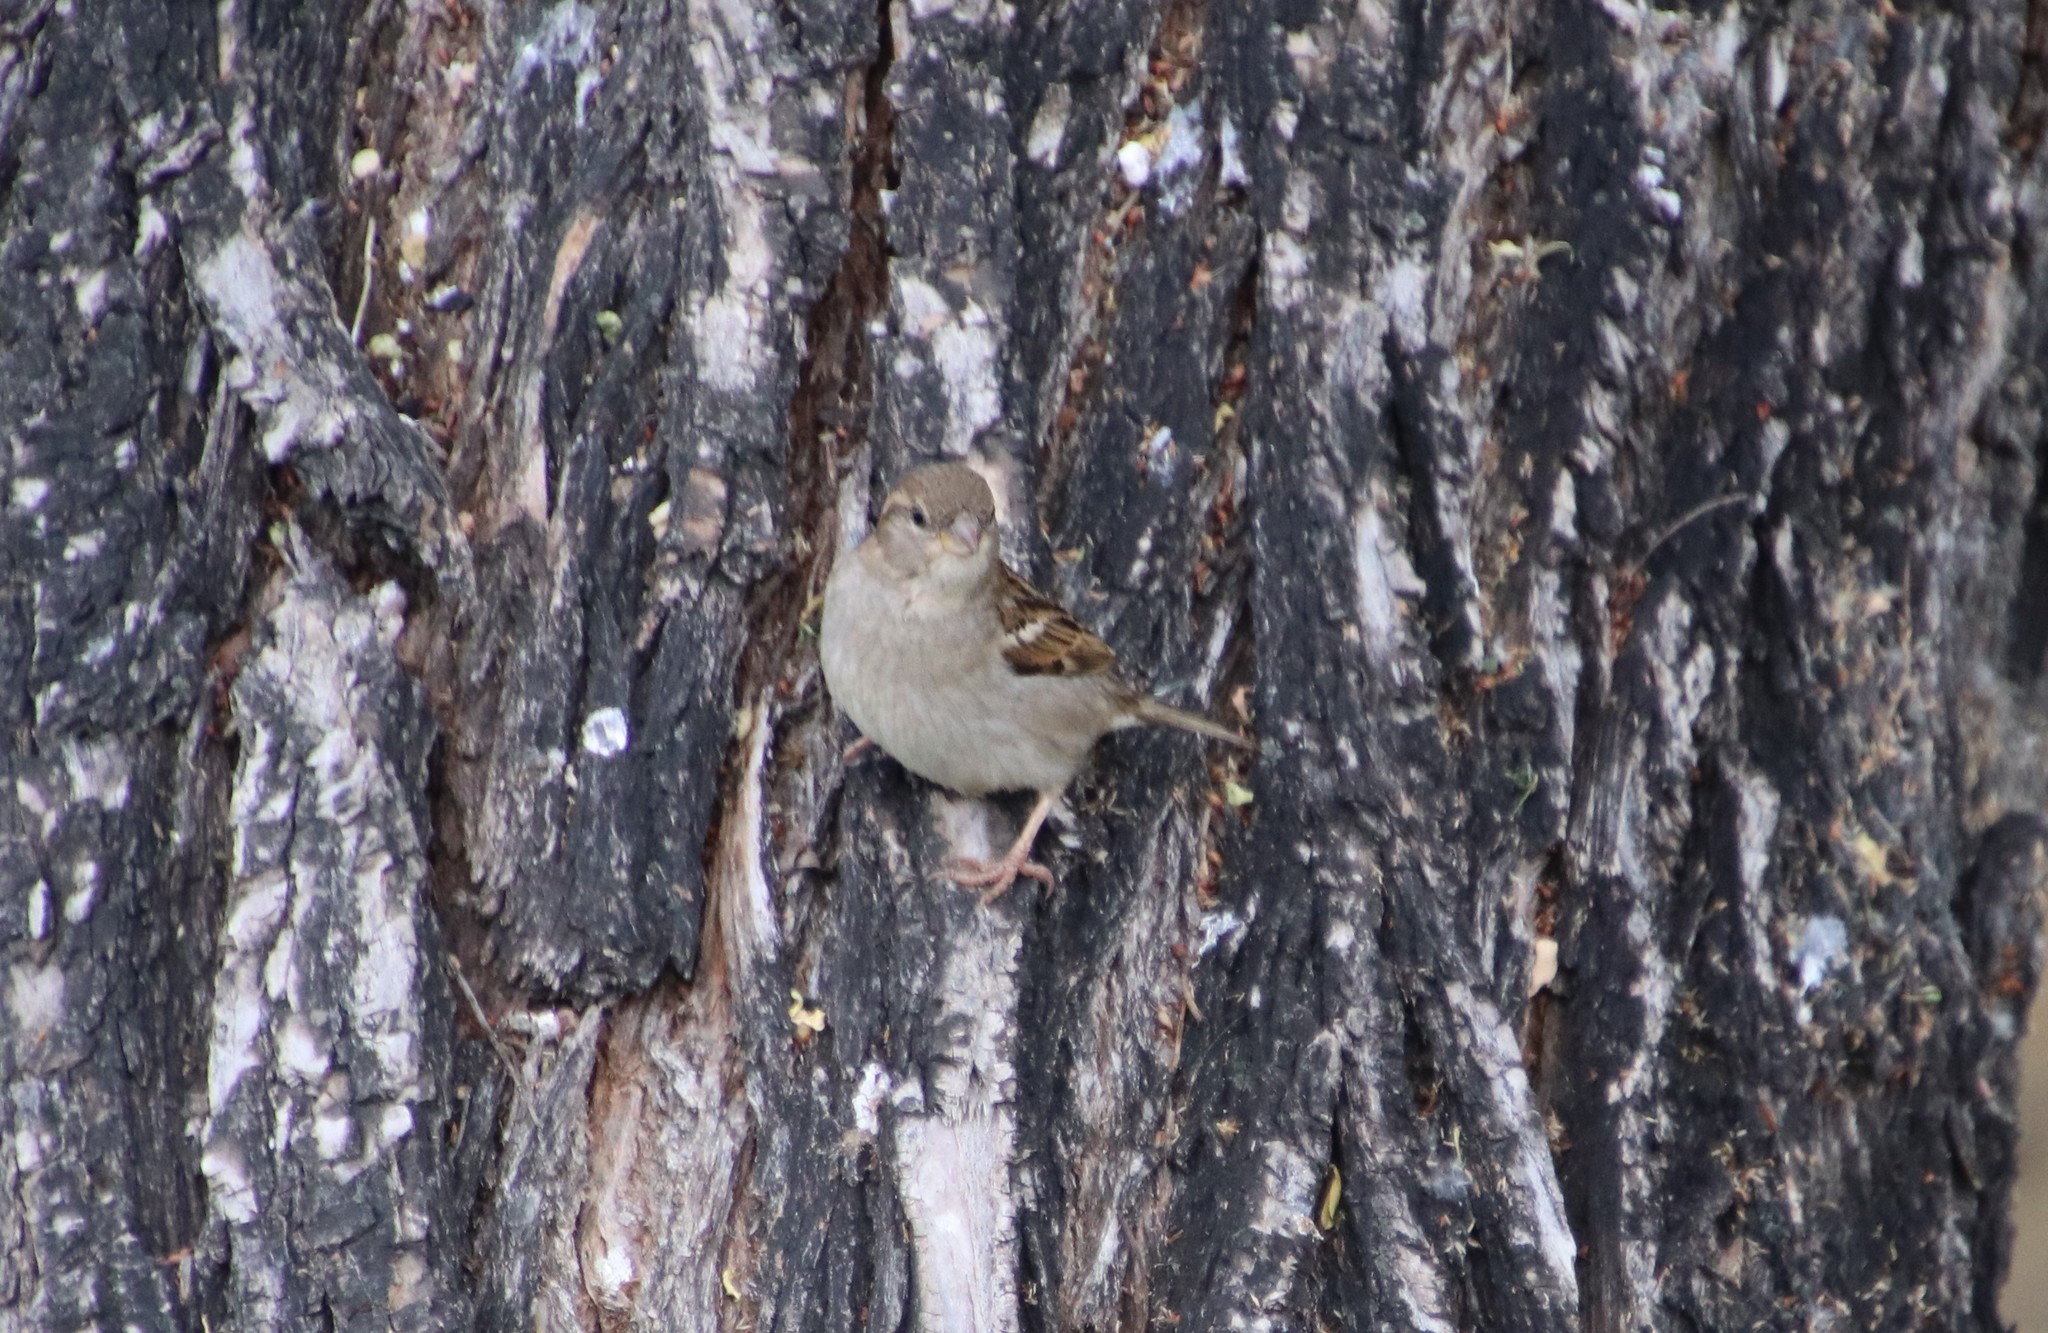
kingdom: Animalia
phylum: Chordata
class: Aves
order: Passeriformes
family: Passeridae
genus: Passer
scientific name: Passer domesticus
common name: House sparrow
